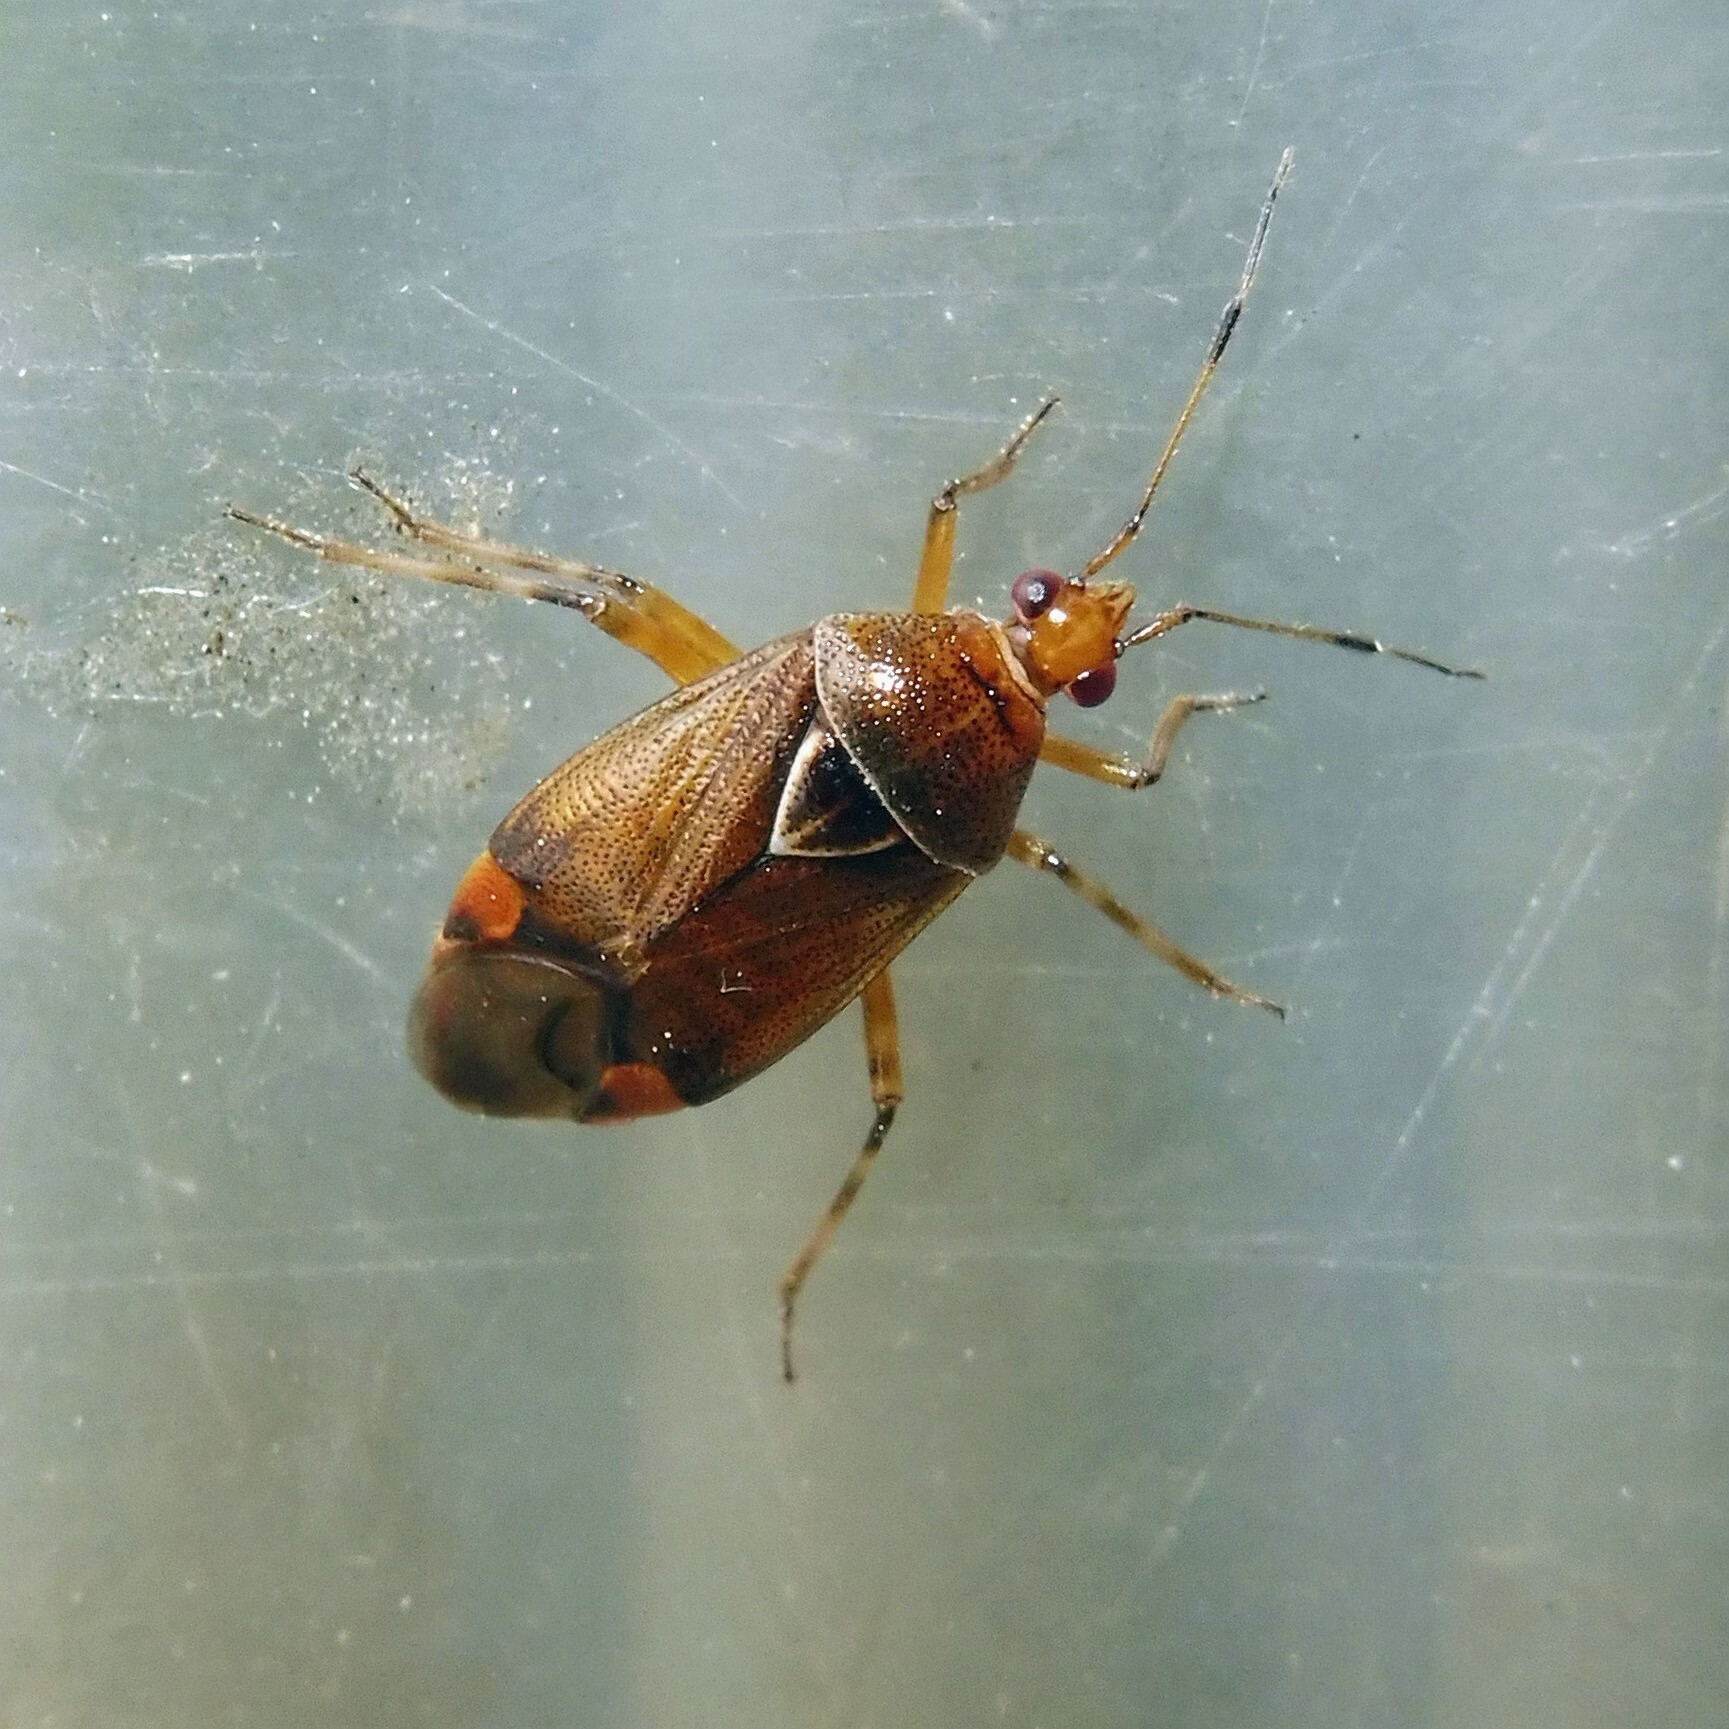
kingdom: Animalia
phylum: Arthropoda
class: Insecta
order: Hemiptera
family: Miridae
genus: Deraeocoris
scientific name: Deraeocoris flavilinea
